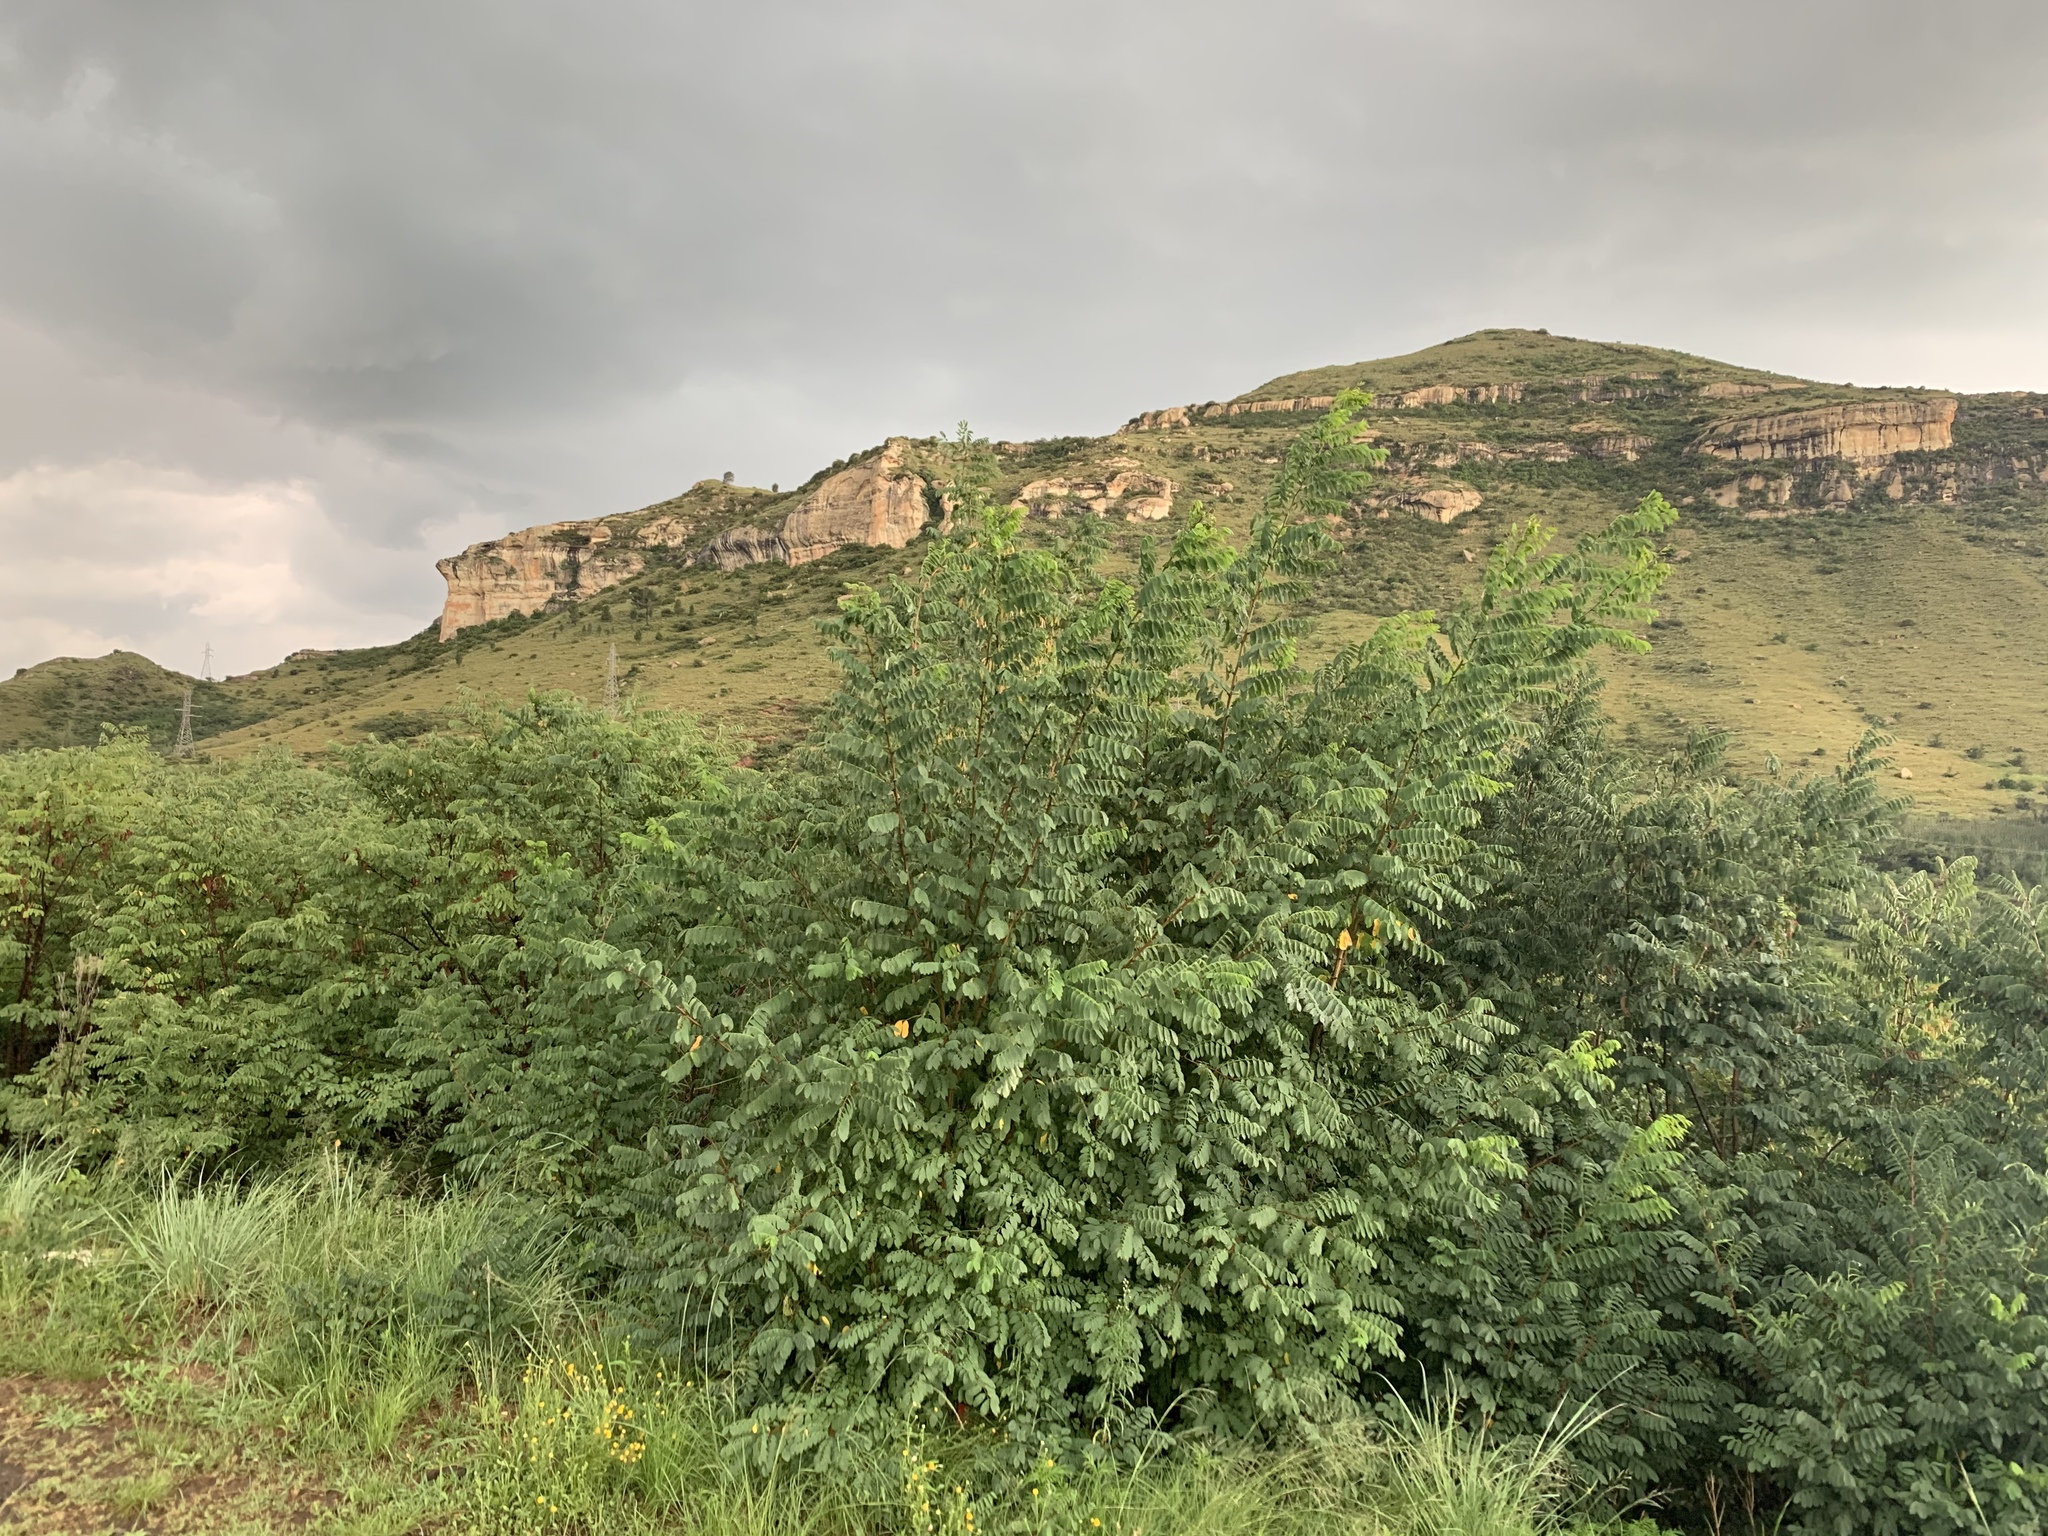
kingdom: Plantae
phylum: Tracheophyta
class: Magnoliopsida
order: Fabales
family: Fabaceae
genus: Robinia
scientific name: Robinia pseudoacacia
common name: Black locust
